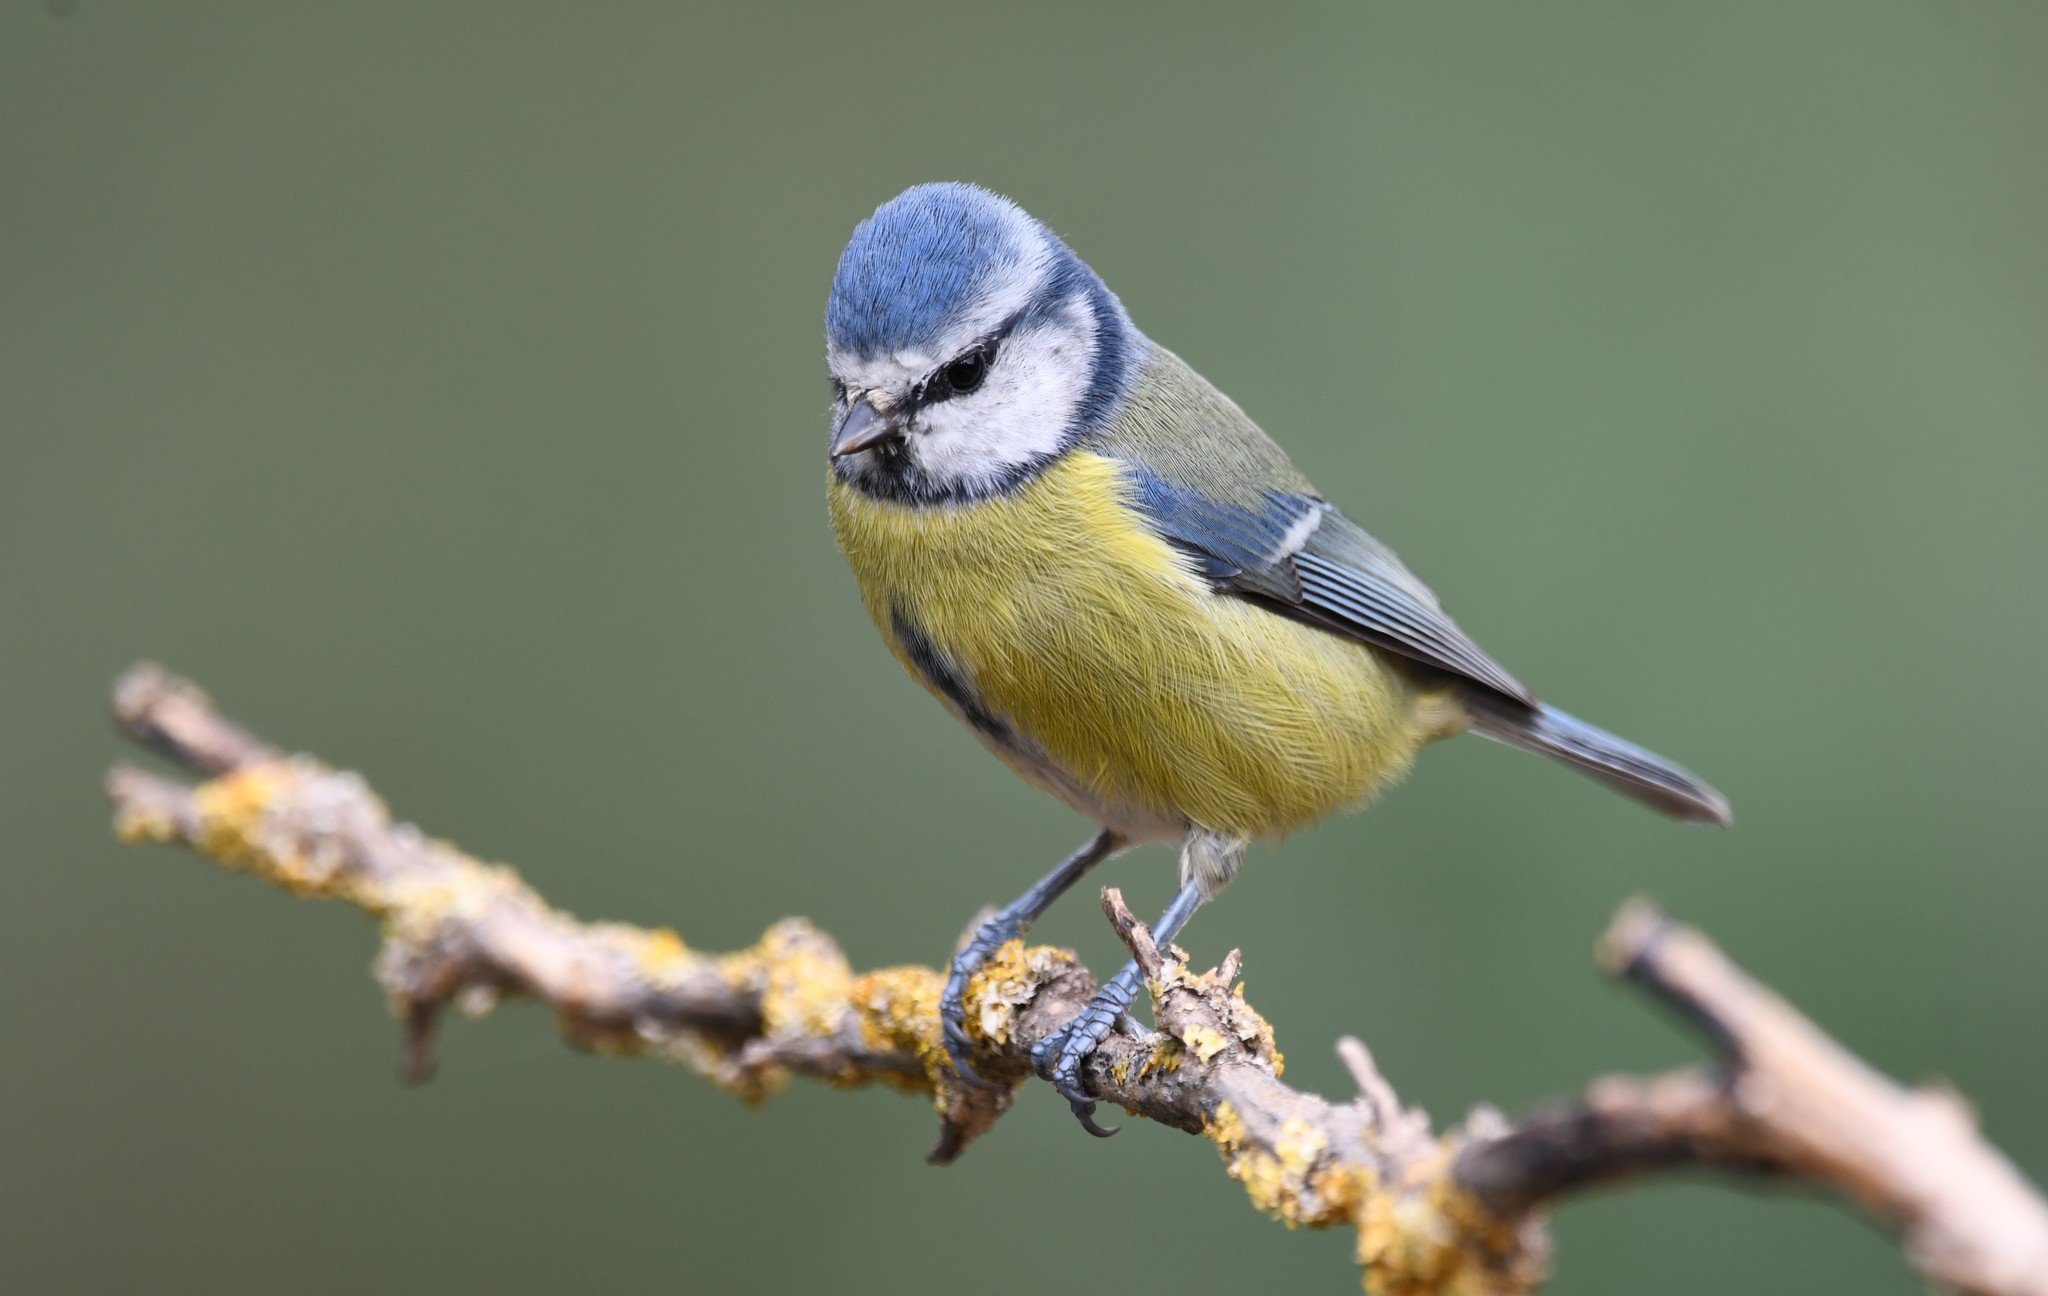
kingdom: Animalia
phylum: Chordata
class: Aves
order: Passeriformes
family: Paridae
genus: Cyanistes
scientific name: Cyanistes caeruleus
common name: Eurasian blue tit
